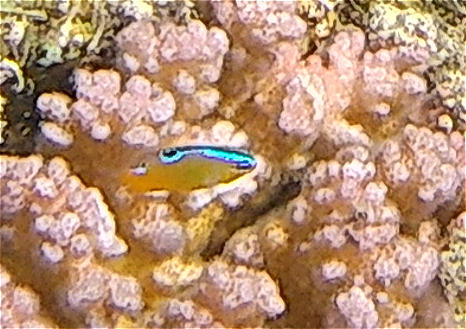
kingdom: Animalia
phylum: Chordata
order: Perciformes
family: Pomacentridae
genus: Chrysiptera
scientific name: Chrysiptera unimaculata
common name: Onespot demoiselle
